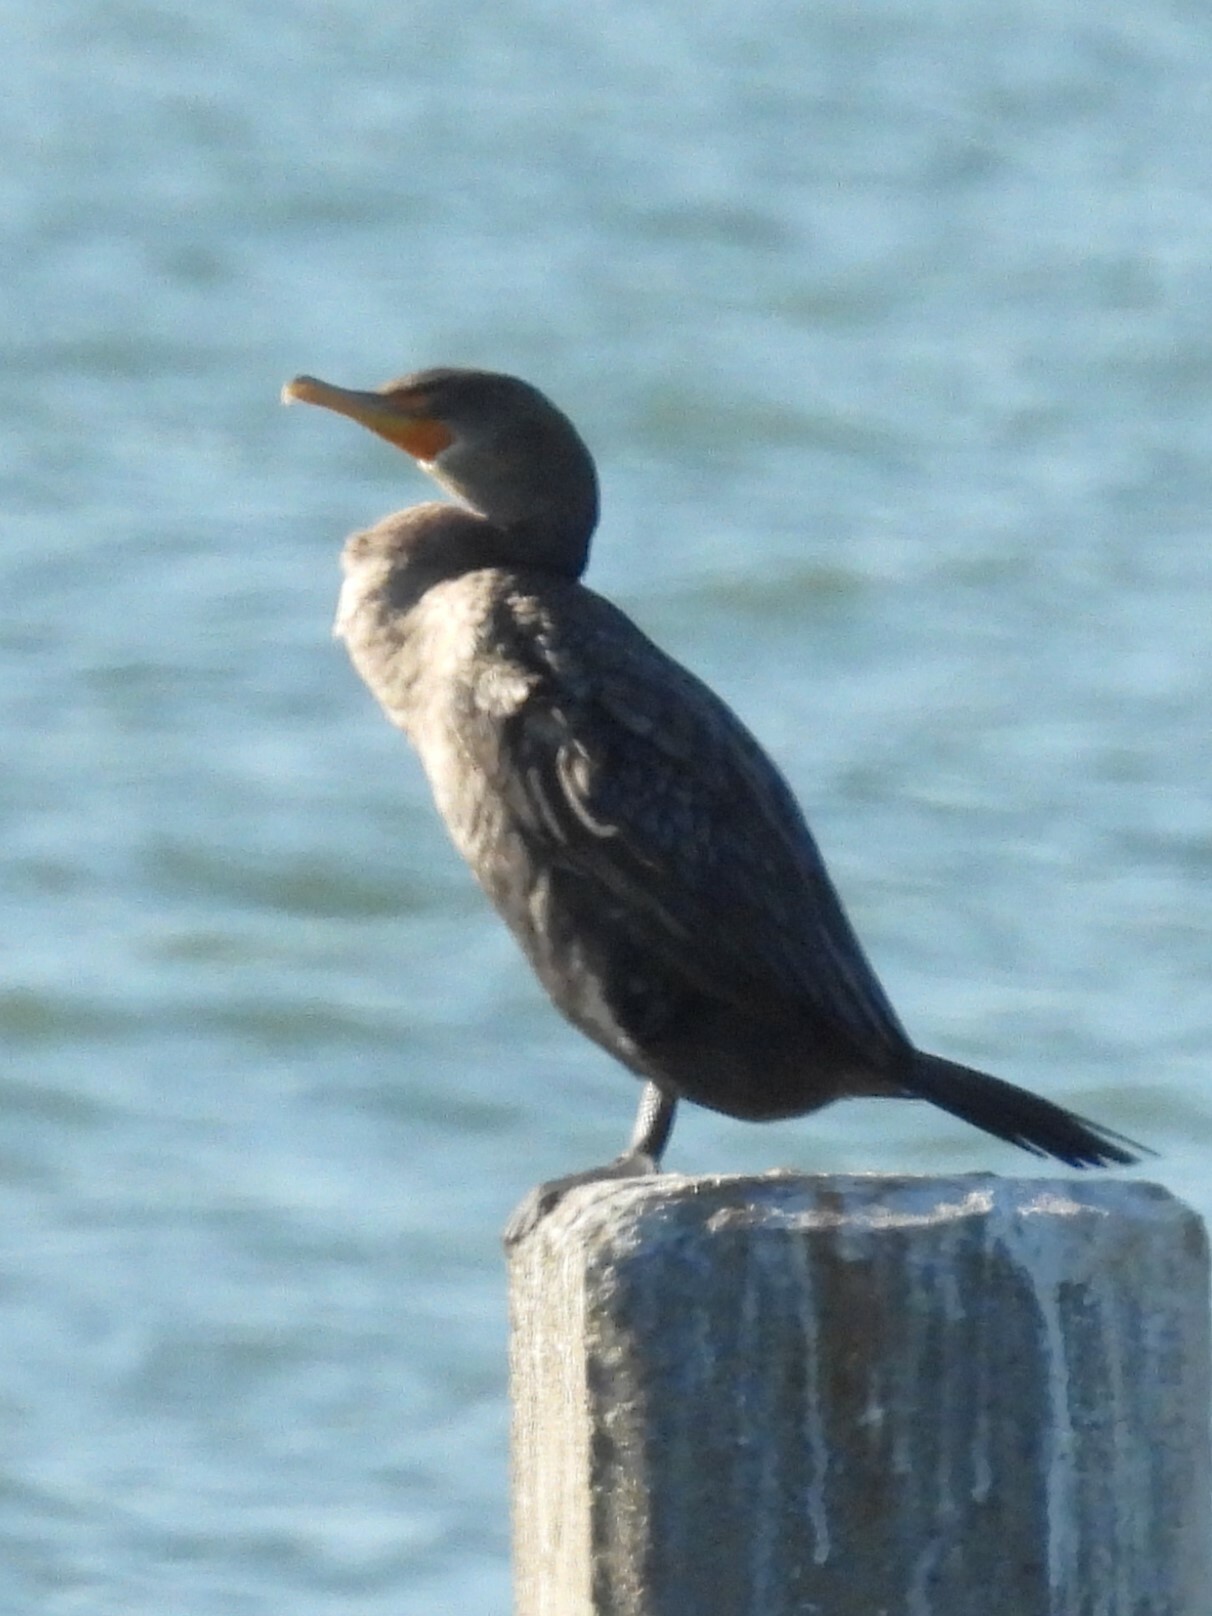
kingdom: Animalia
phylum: Chordata
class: Aves
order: Suliformes
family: Phalacrocoracidae
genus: Phalacrocorax
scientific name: Phalacrocorax auritus
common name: Double-crested cormorant
